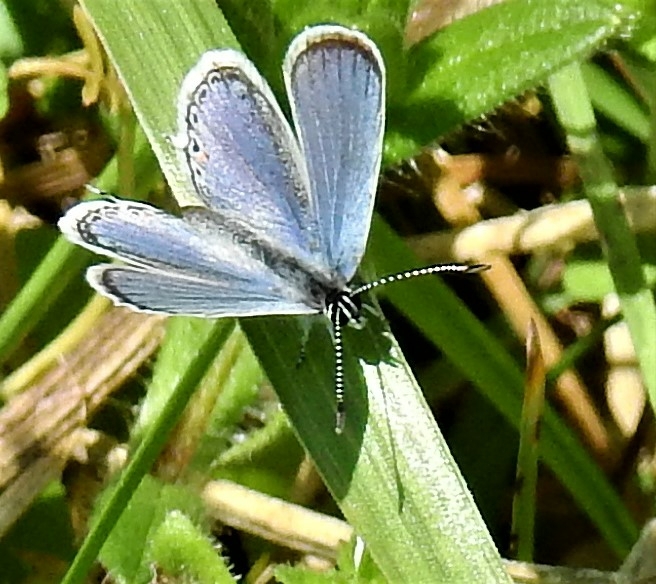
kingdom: Animalia
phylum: Arthropoda
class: Insecta
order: Lepidoptera
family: Lycaenidae
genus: Elkalyce
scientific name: Elkalyce comyntas
